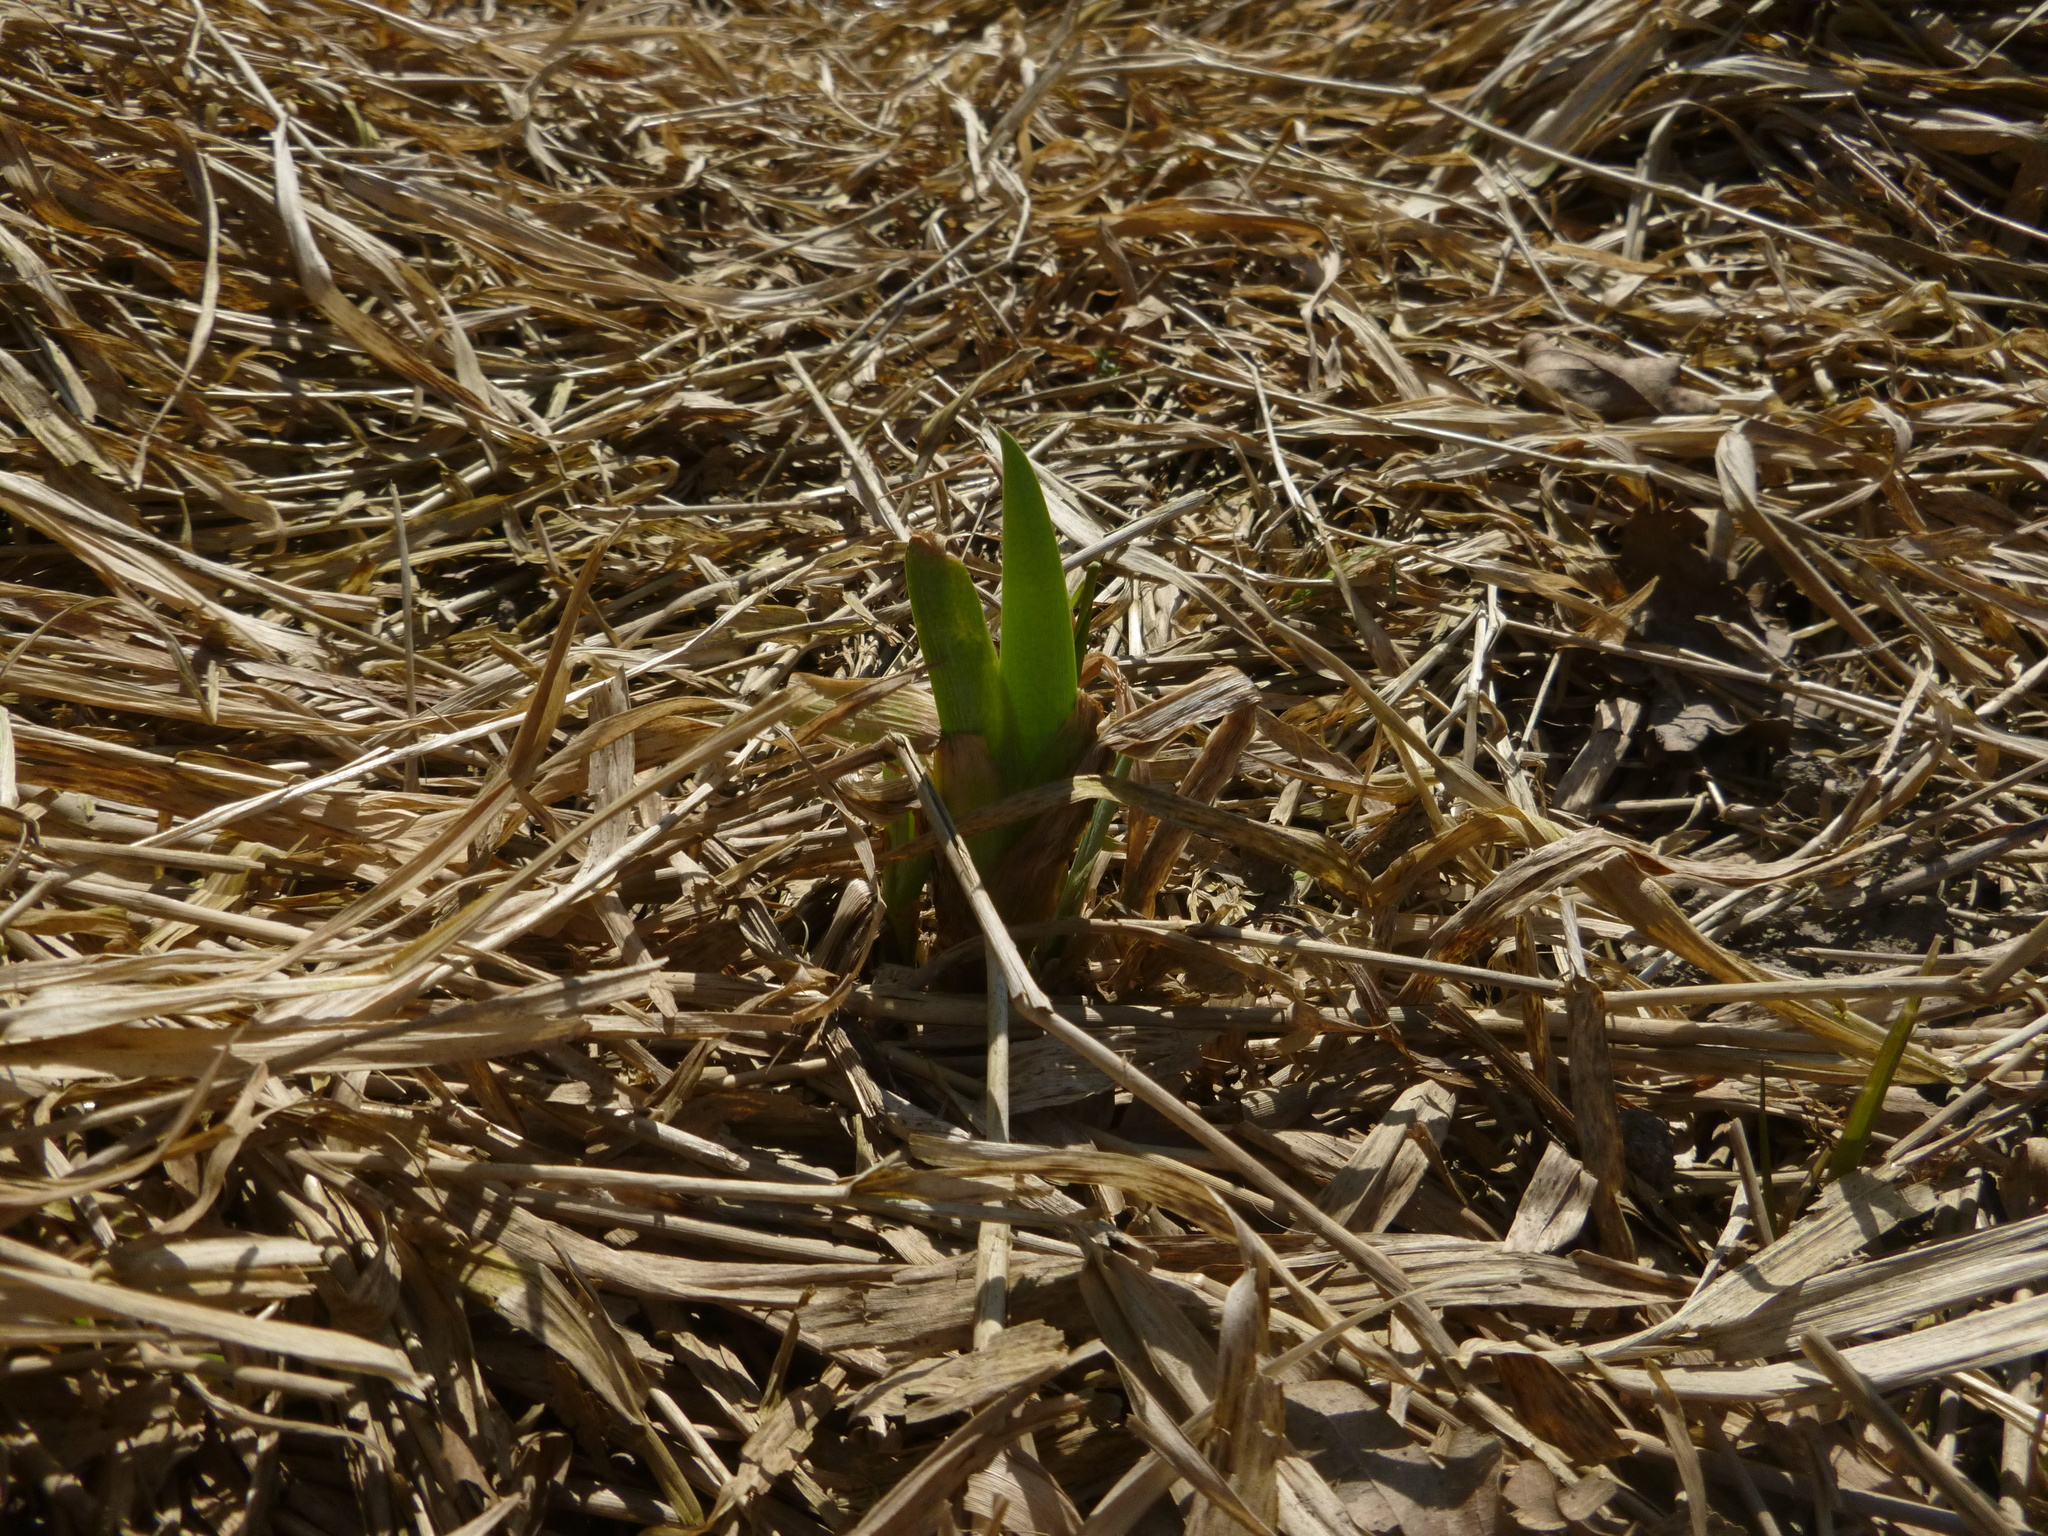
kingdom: Plantae
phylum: Tracheophyta
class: Liliopsida
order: Asparagales
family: Iridaceae
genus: Iris
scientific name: Iris pseudacorus
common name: Yellow flag
